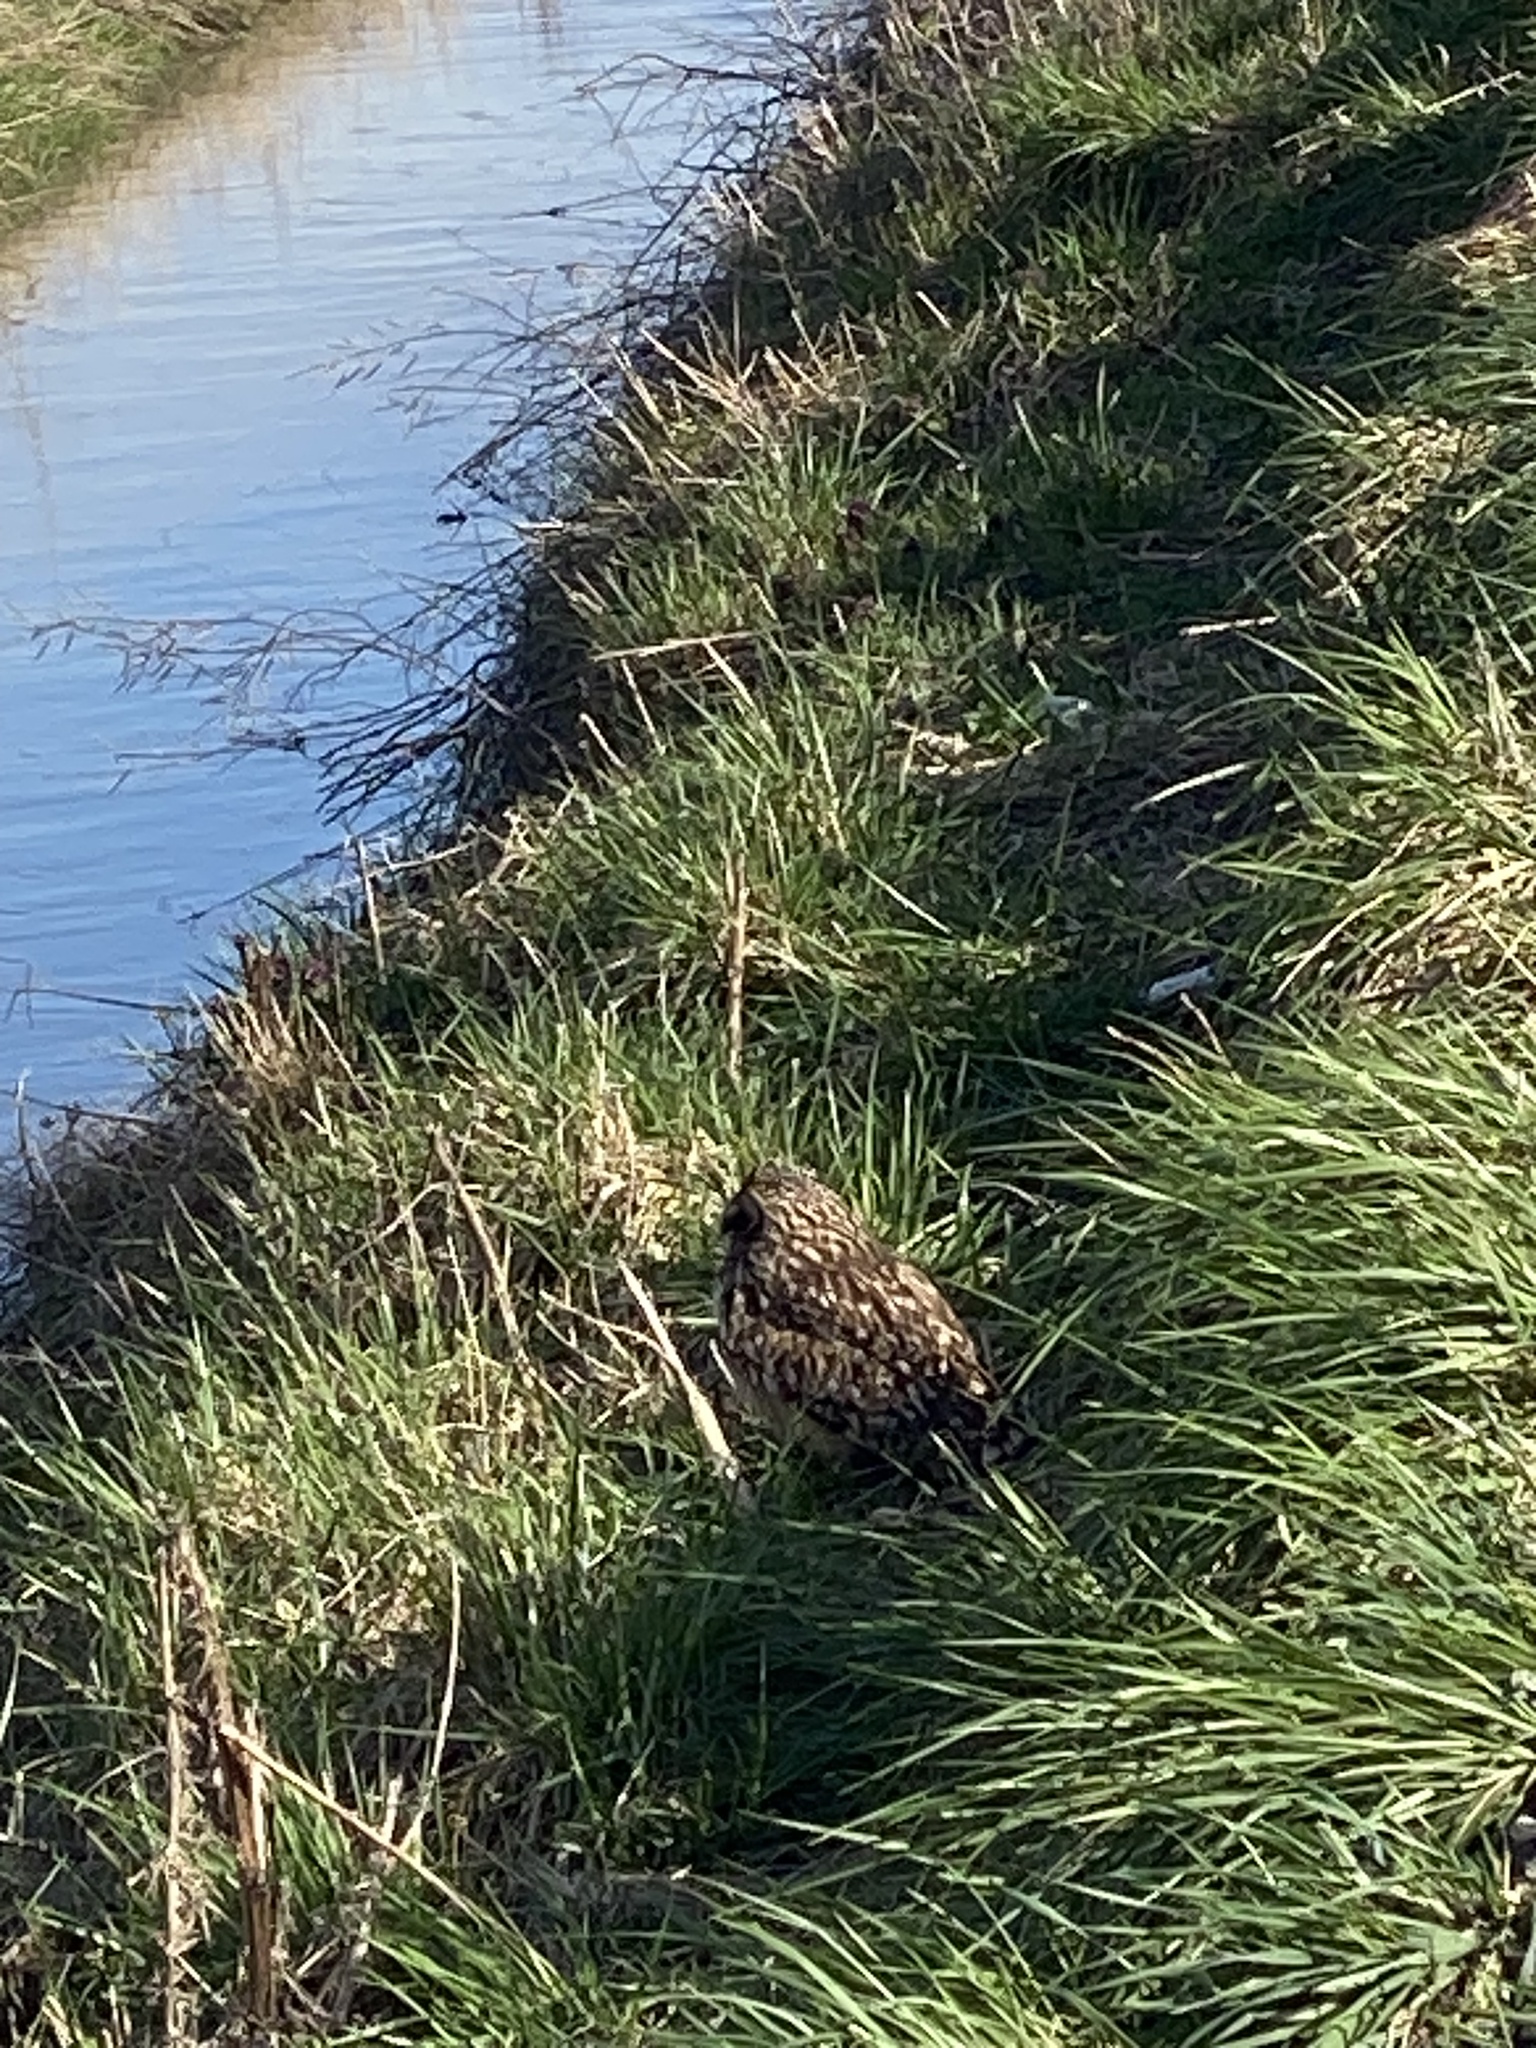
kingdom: Animalia
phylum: Chordata
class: Aves
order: Strigiformes
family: Strigidae
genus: Asio
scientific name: Asio flammeus
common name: Short-eared owl
